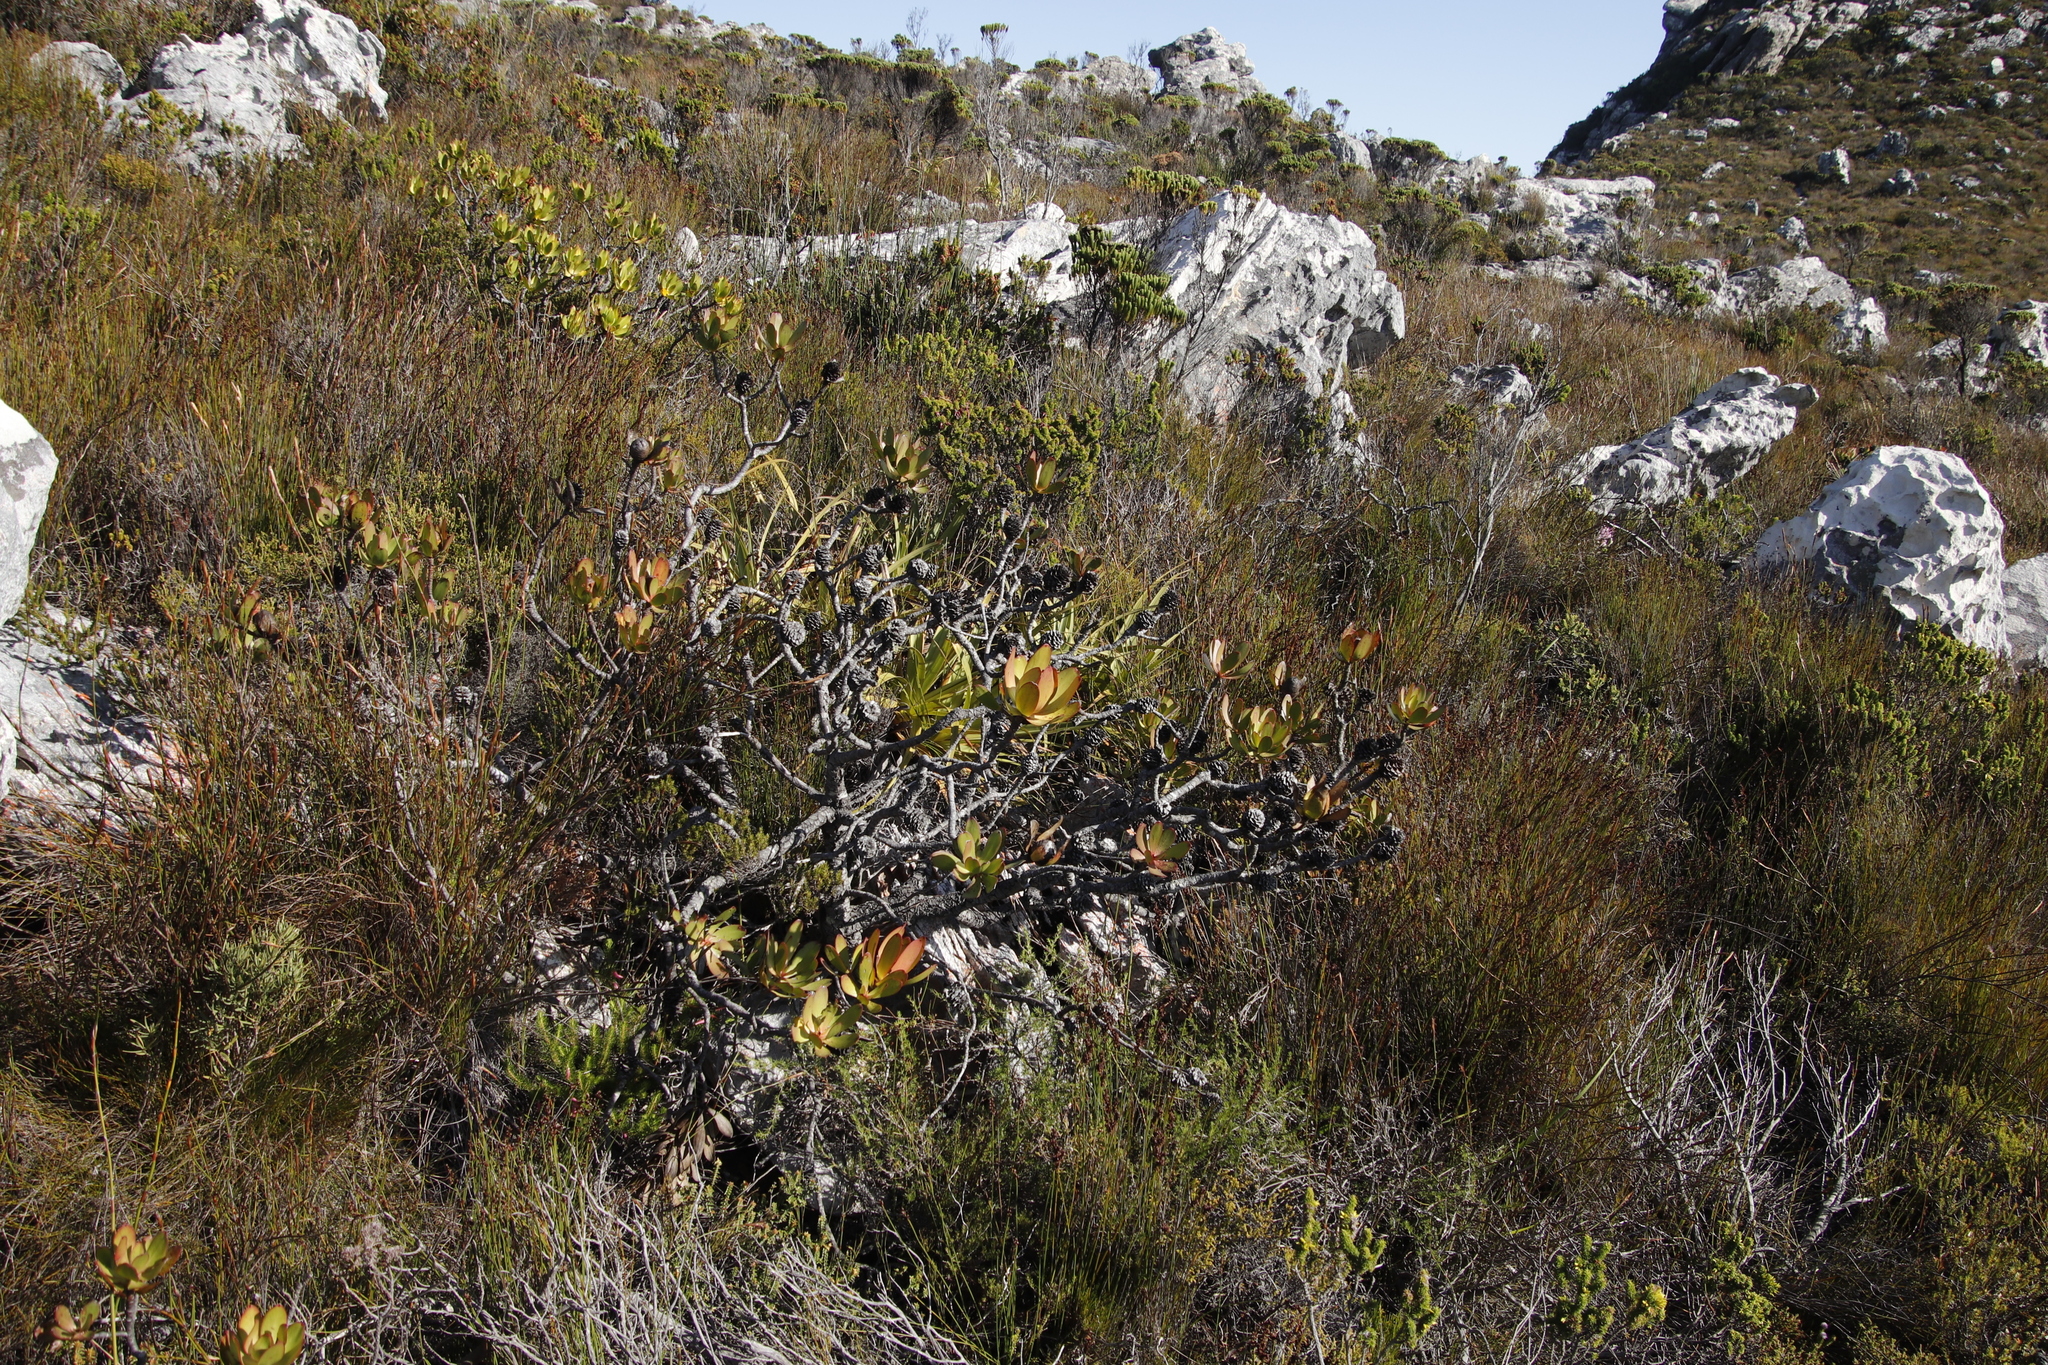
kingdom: Plantae
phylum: Tracheophyta
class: Magnoliopsida
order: Proteales
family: Proteaceae
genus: Leucadendron
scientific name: Leucadendron gandogeri
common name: Broad-leaf conebush
